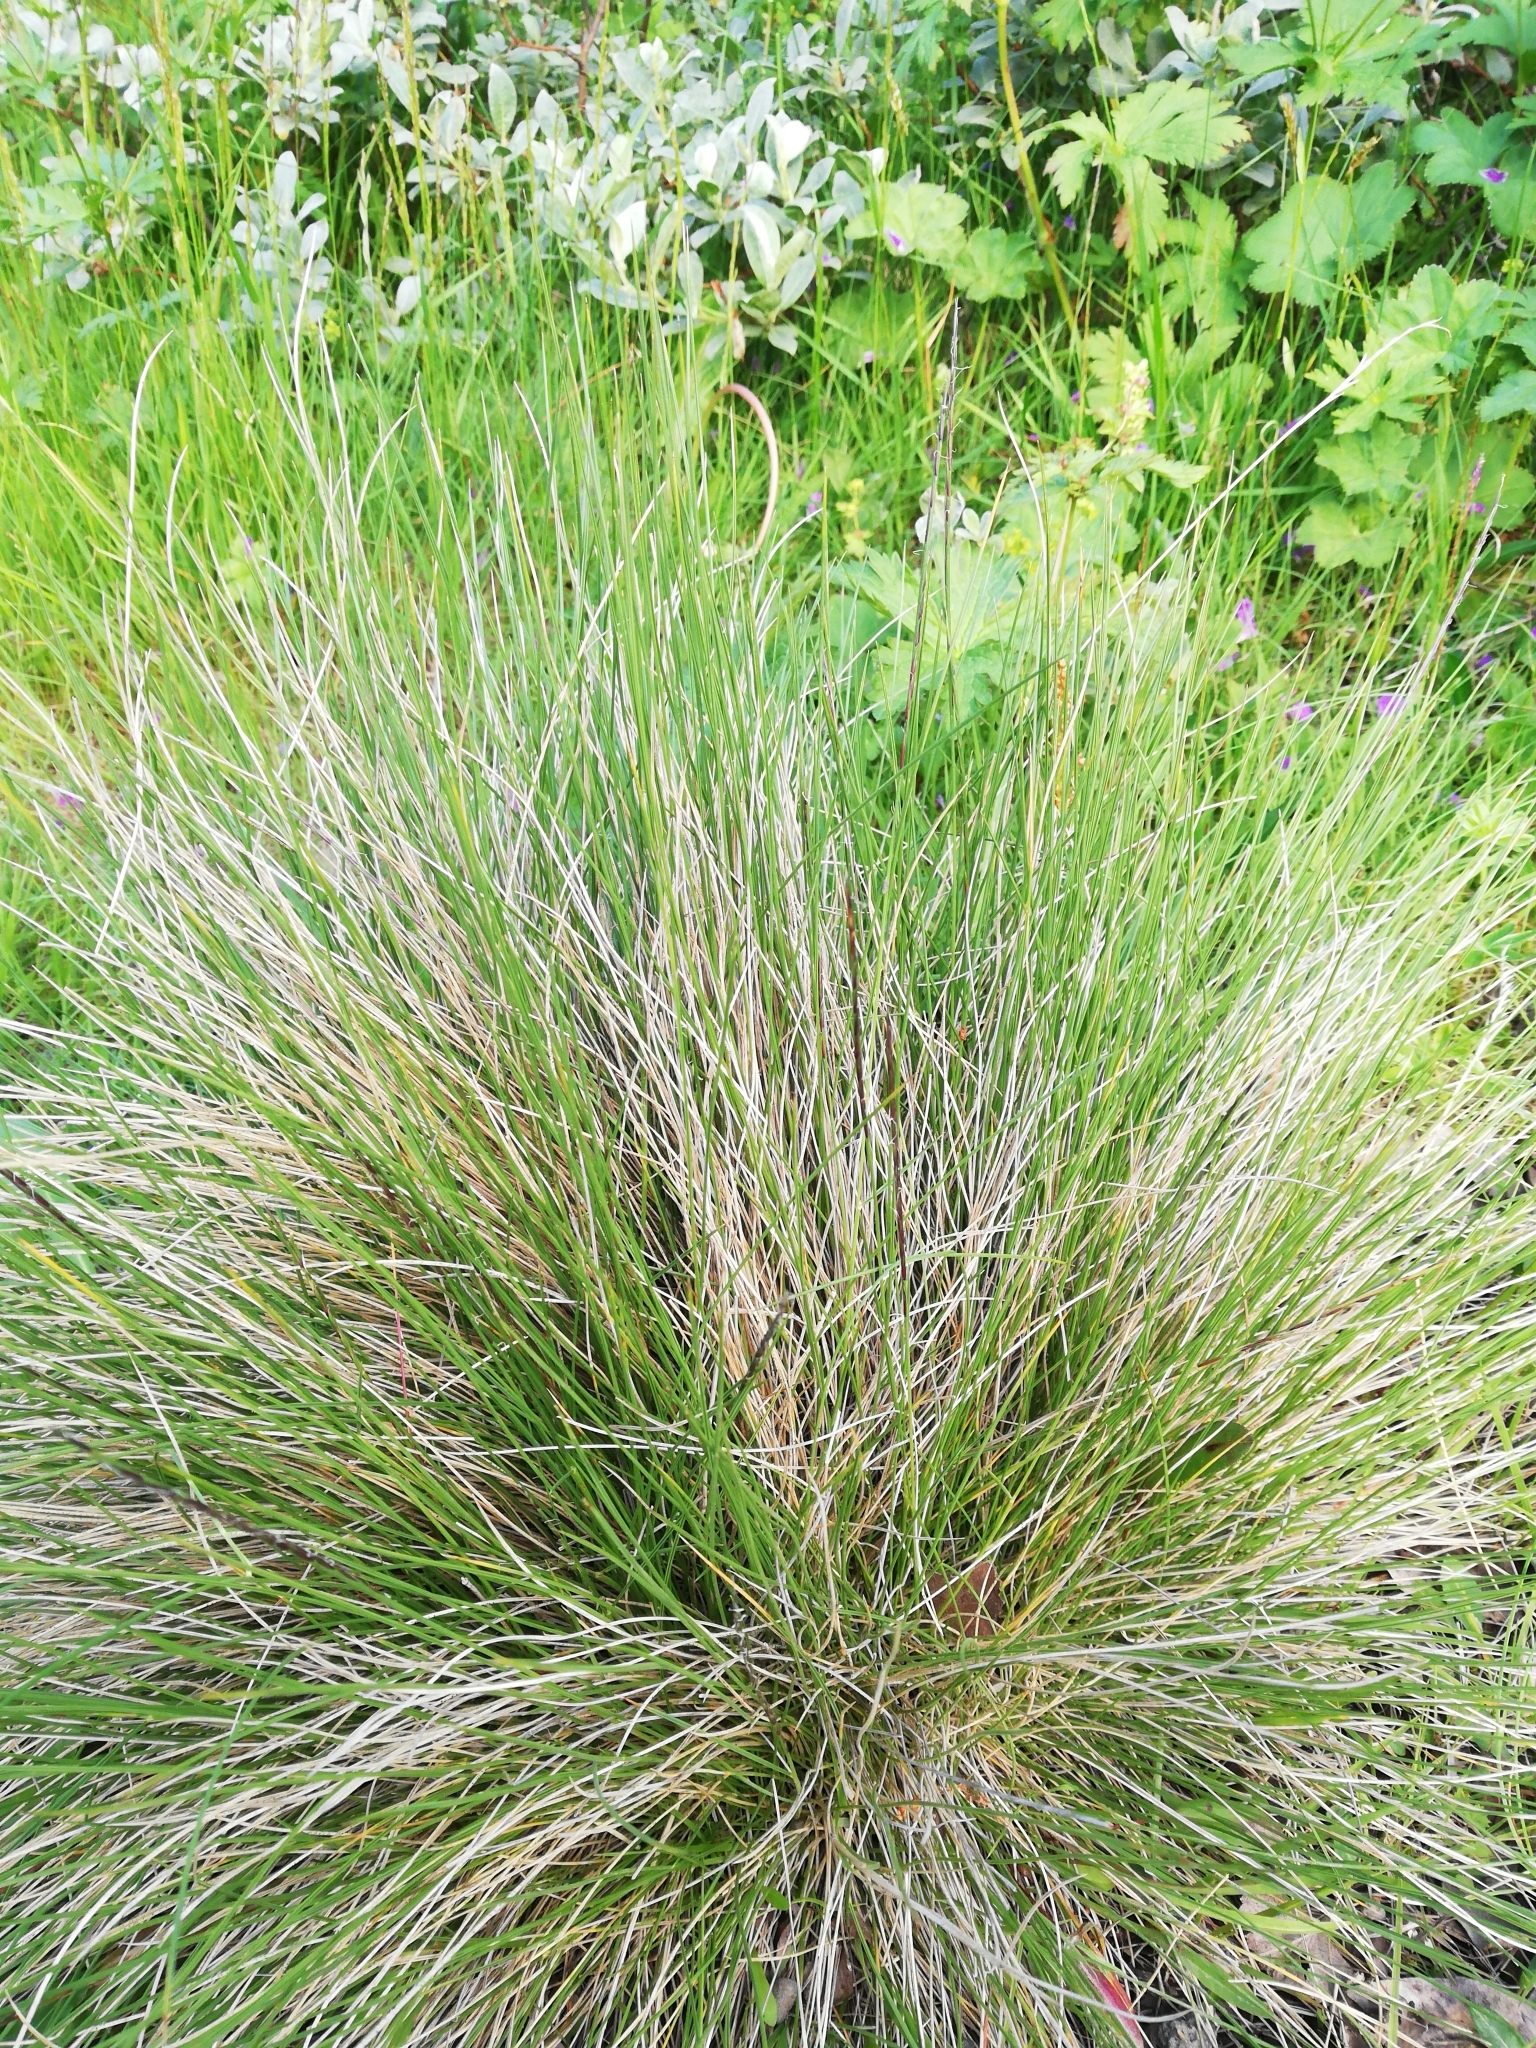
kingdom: Plantae
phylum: Tracheophyta
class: Liliopsida
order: Poales
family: Poaceae
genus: Nardus
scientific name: Nardus stricta
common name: Mat-grass
